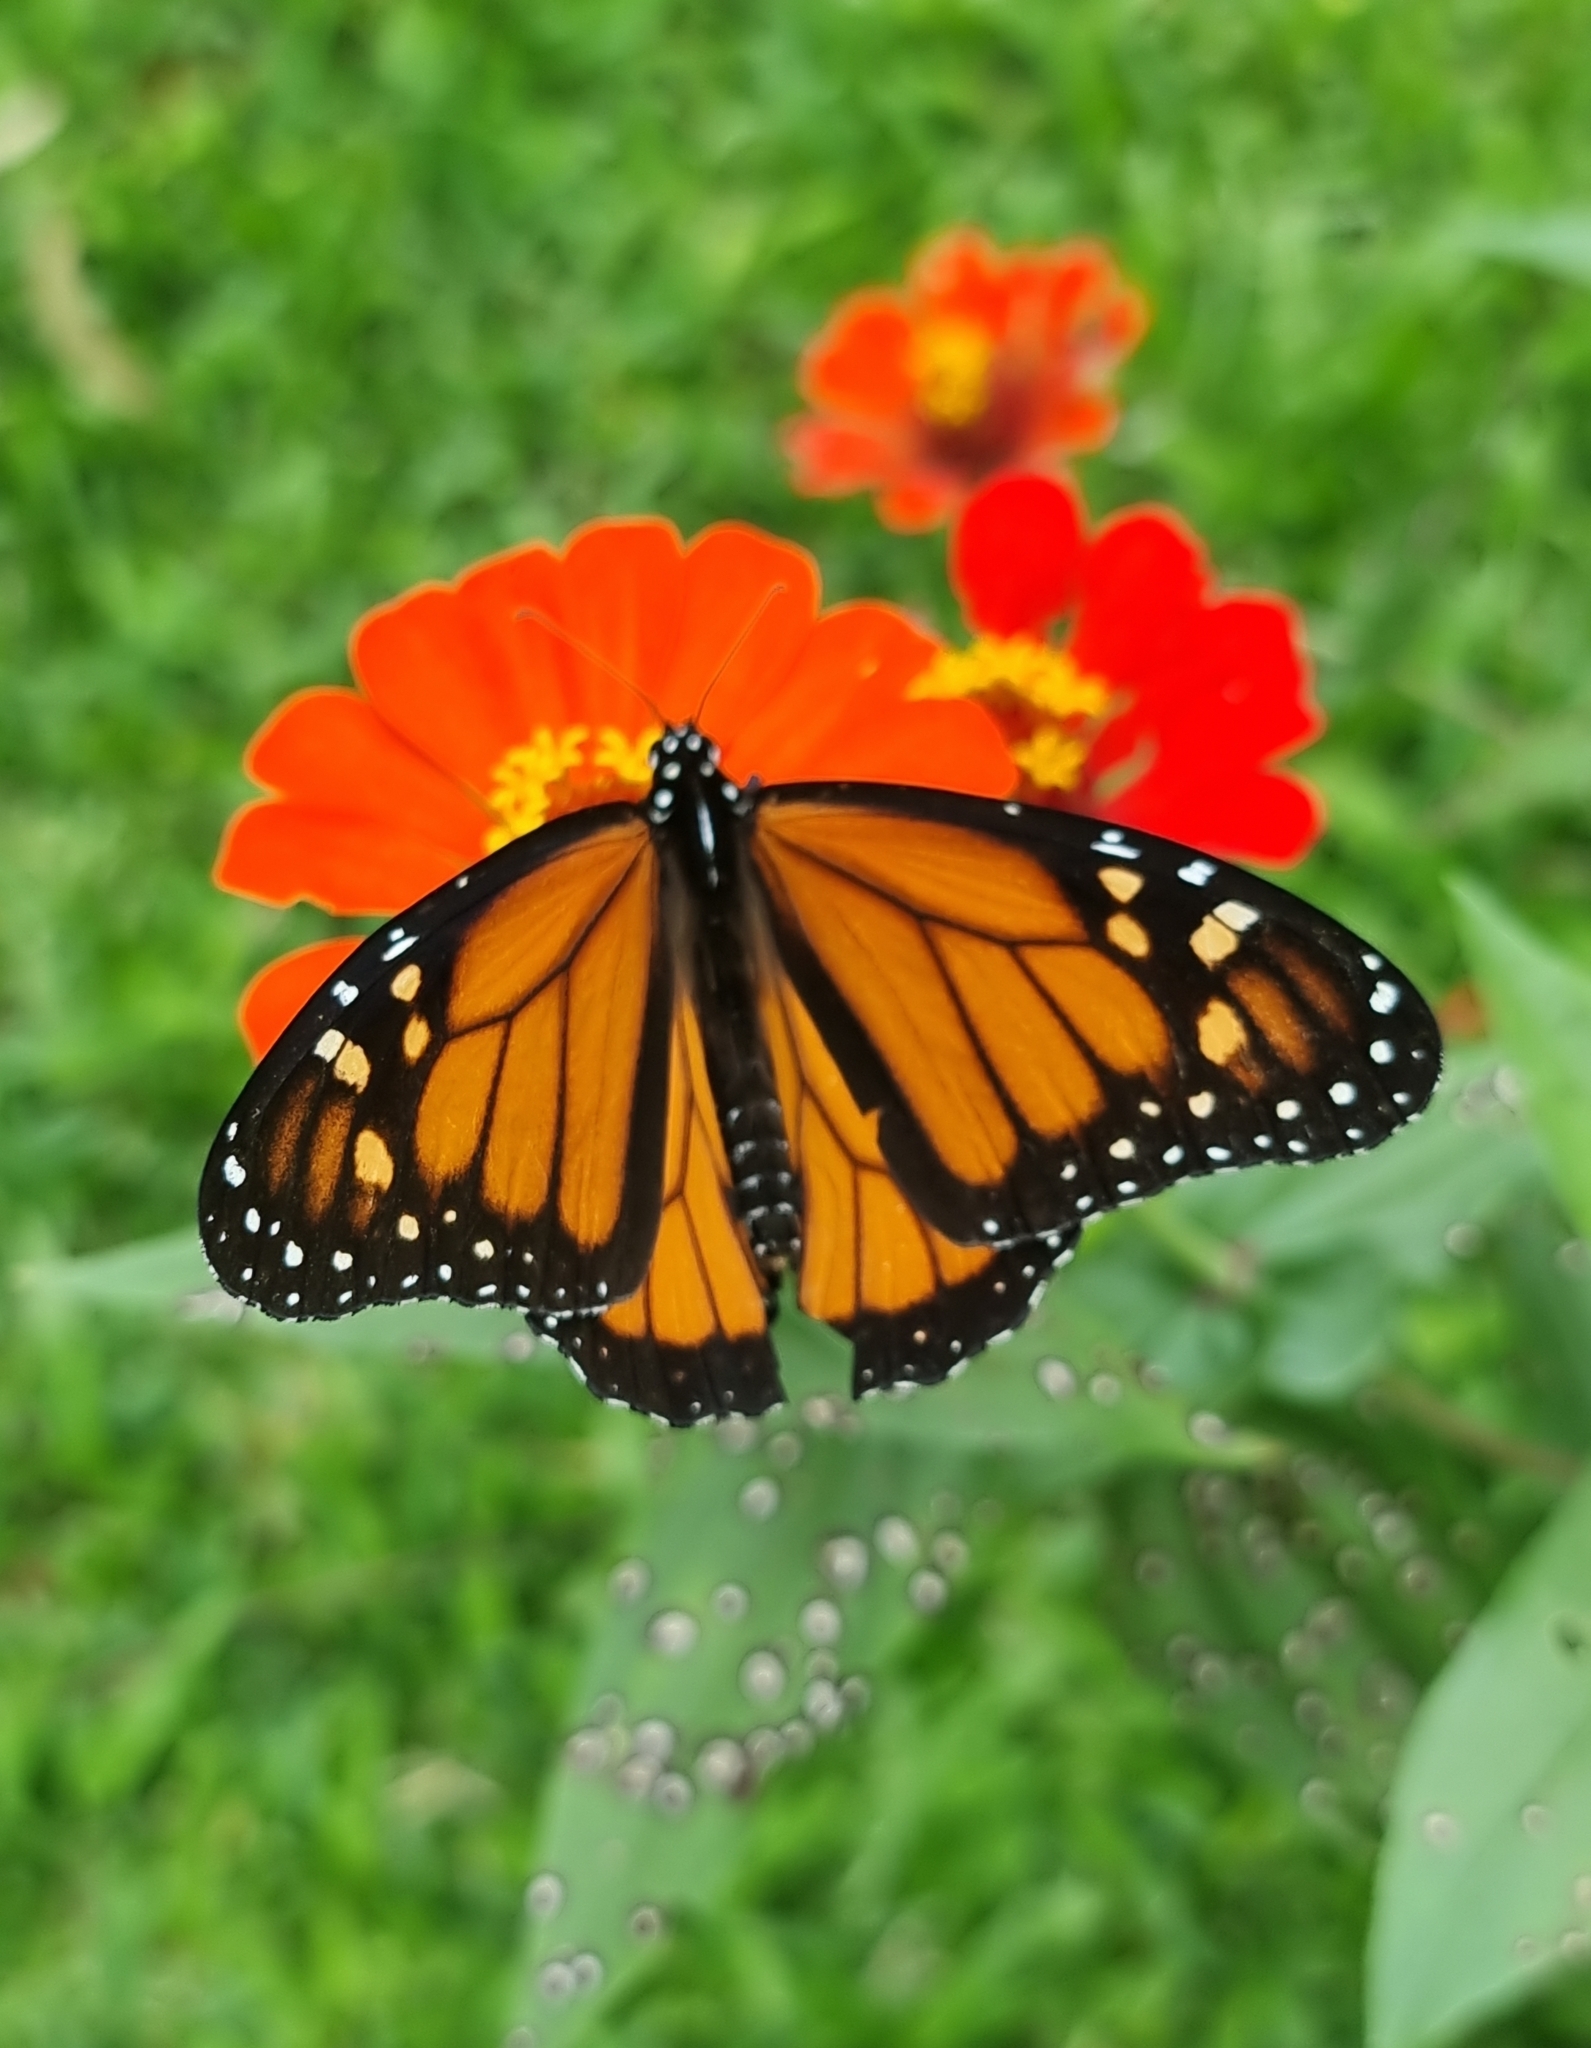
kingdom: Animalia
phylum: Arthropoda
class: Insecta
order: Lepidoptera
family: Nymphalidae
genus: Danaus
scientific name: Danaus plexippus
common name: Monarch
